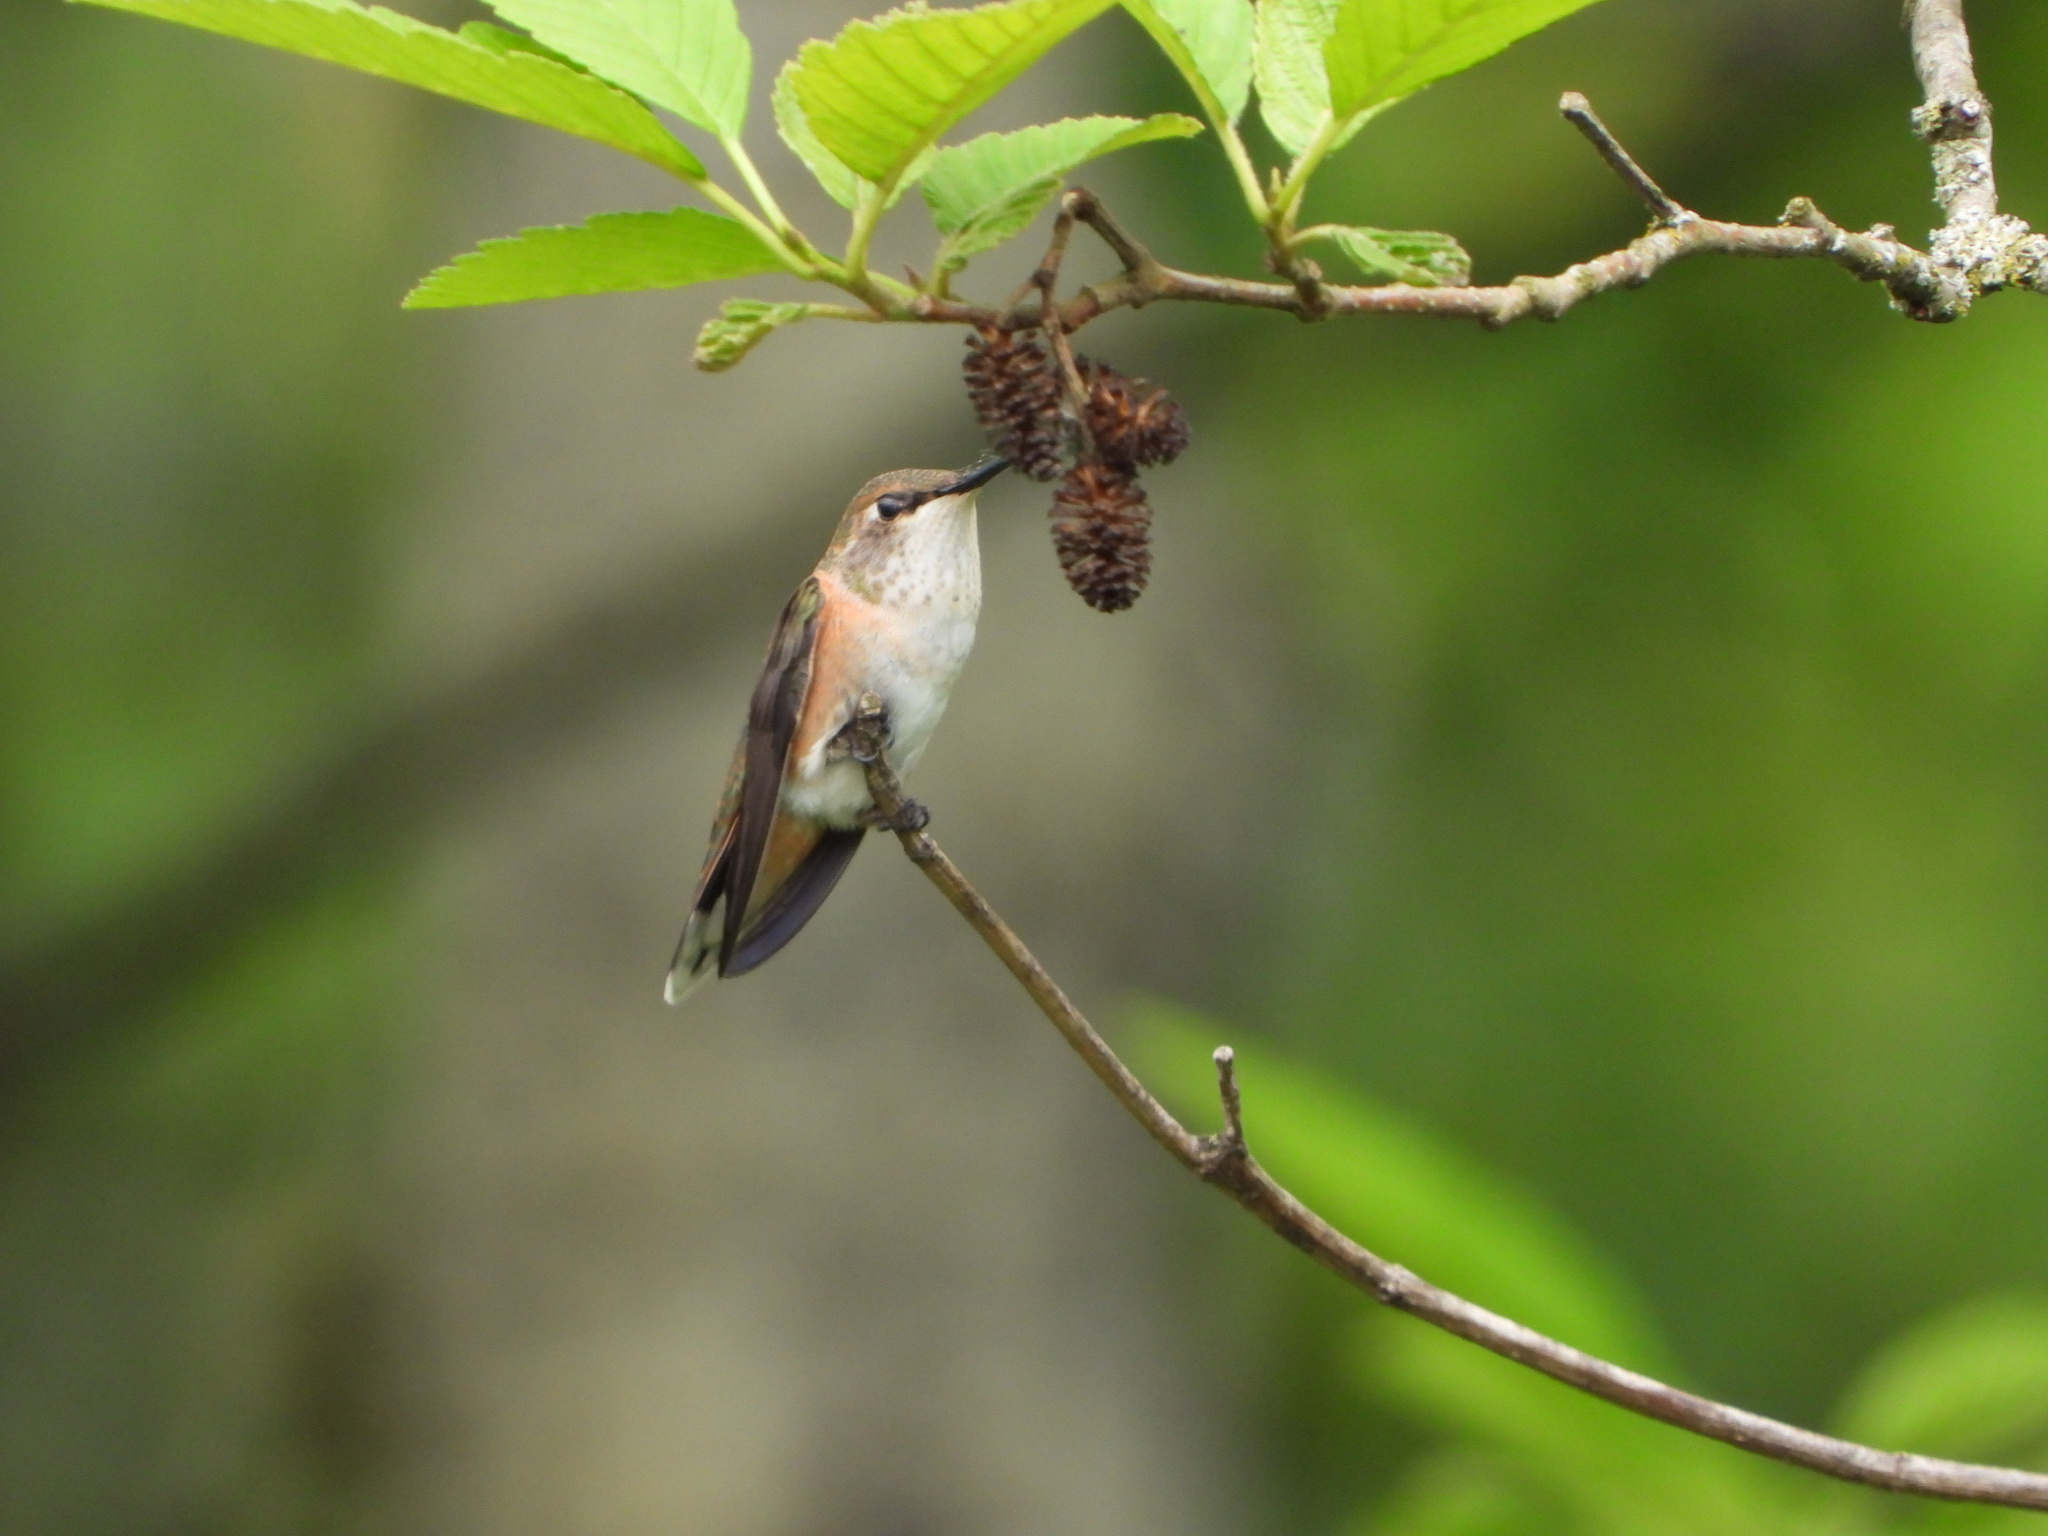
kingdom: Animalia
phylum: Chordata
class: Aves
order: Apodiformes
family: Trochilidae
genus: Selasphorus
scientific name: Selasphorus rufus
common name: Rufous hummingbird
